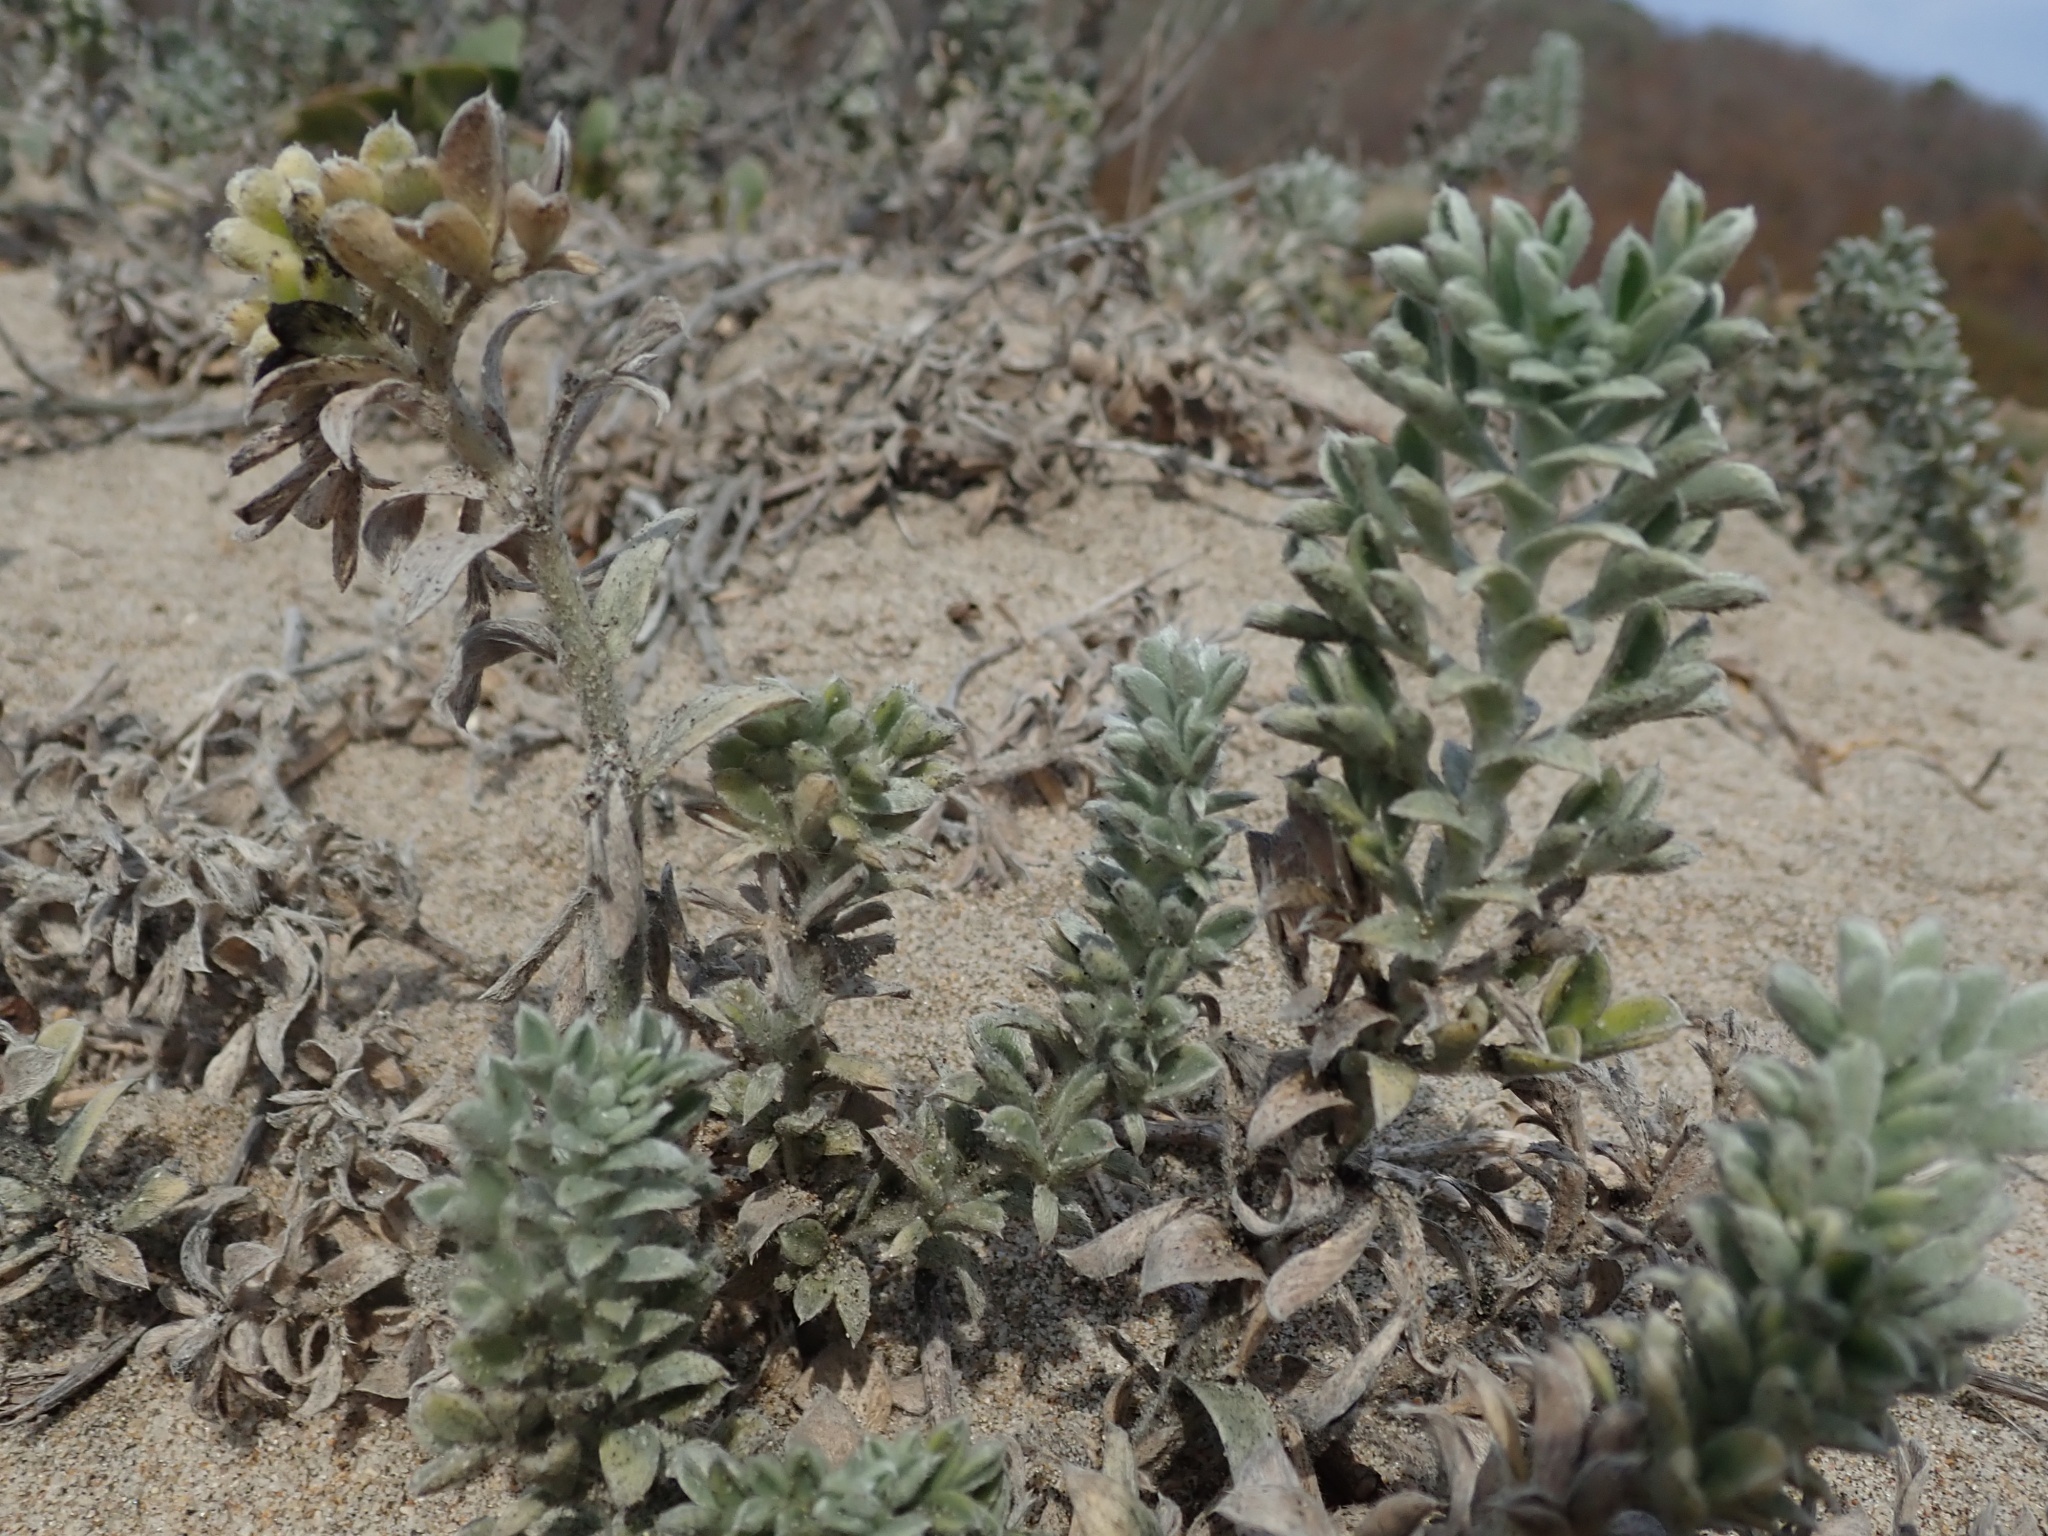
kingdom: Plantae
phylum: Tracheophyta
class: Magnoliopsida
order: Fabales
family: Fabaceae
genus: Lathyrus
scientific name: Lathyrus littoralis
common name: Dune sweet pea
